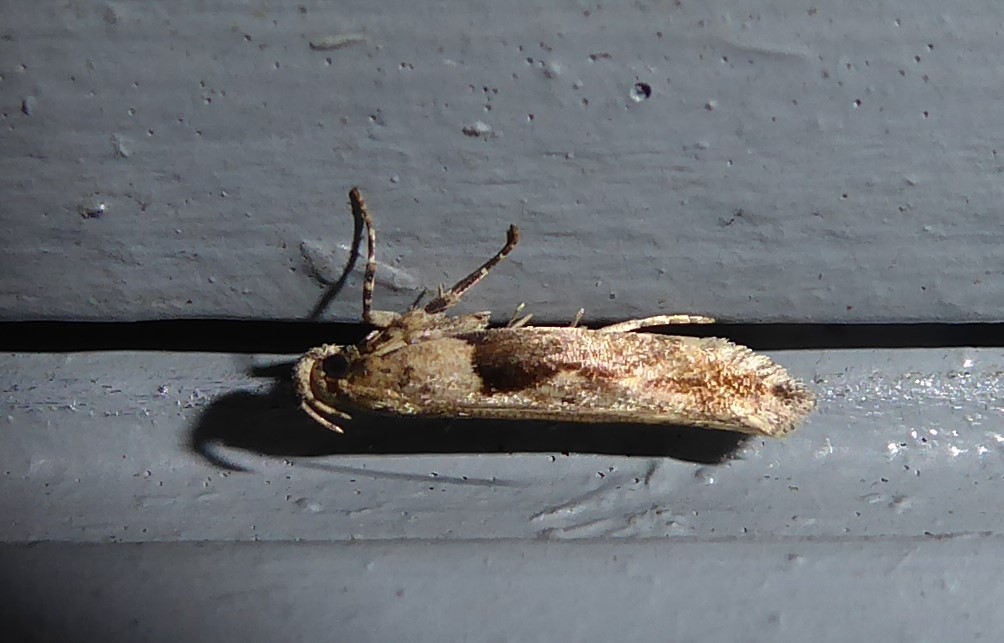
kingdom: Animalia
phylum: Arthropoda
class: Insecta
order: Lepidoptera
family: Gelechiidae
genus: Symmetrischema
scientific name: Symmetrischema tangolias
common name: Moth
